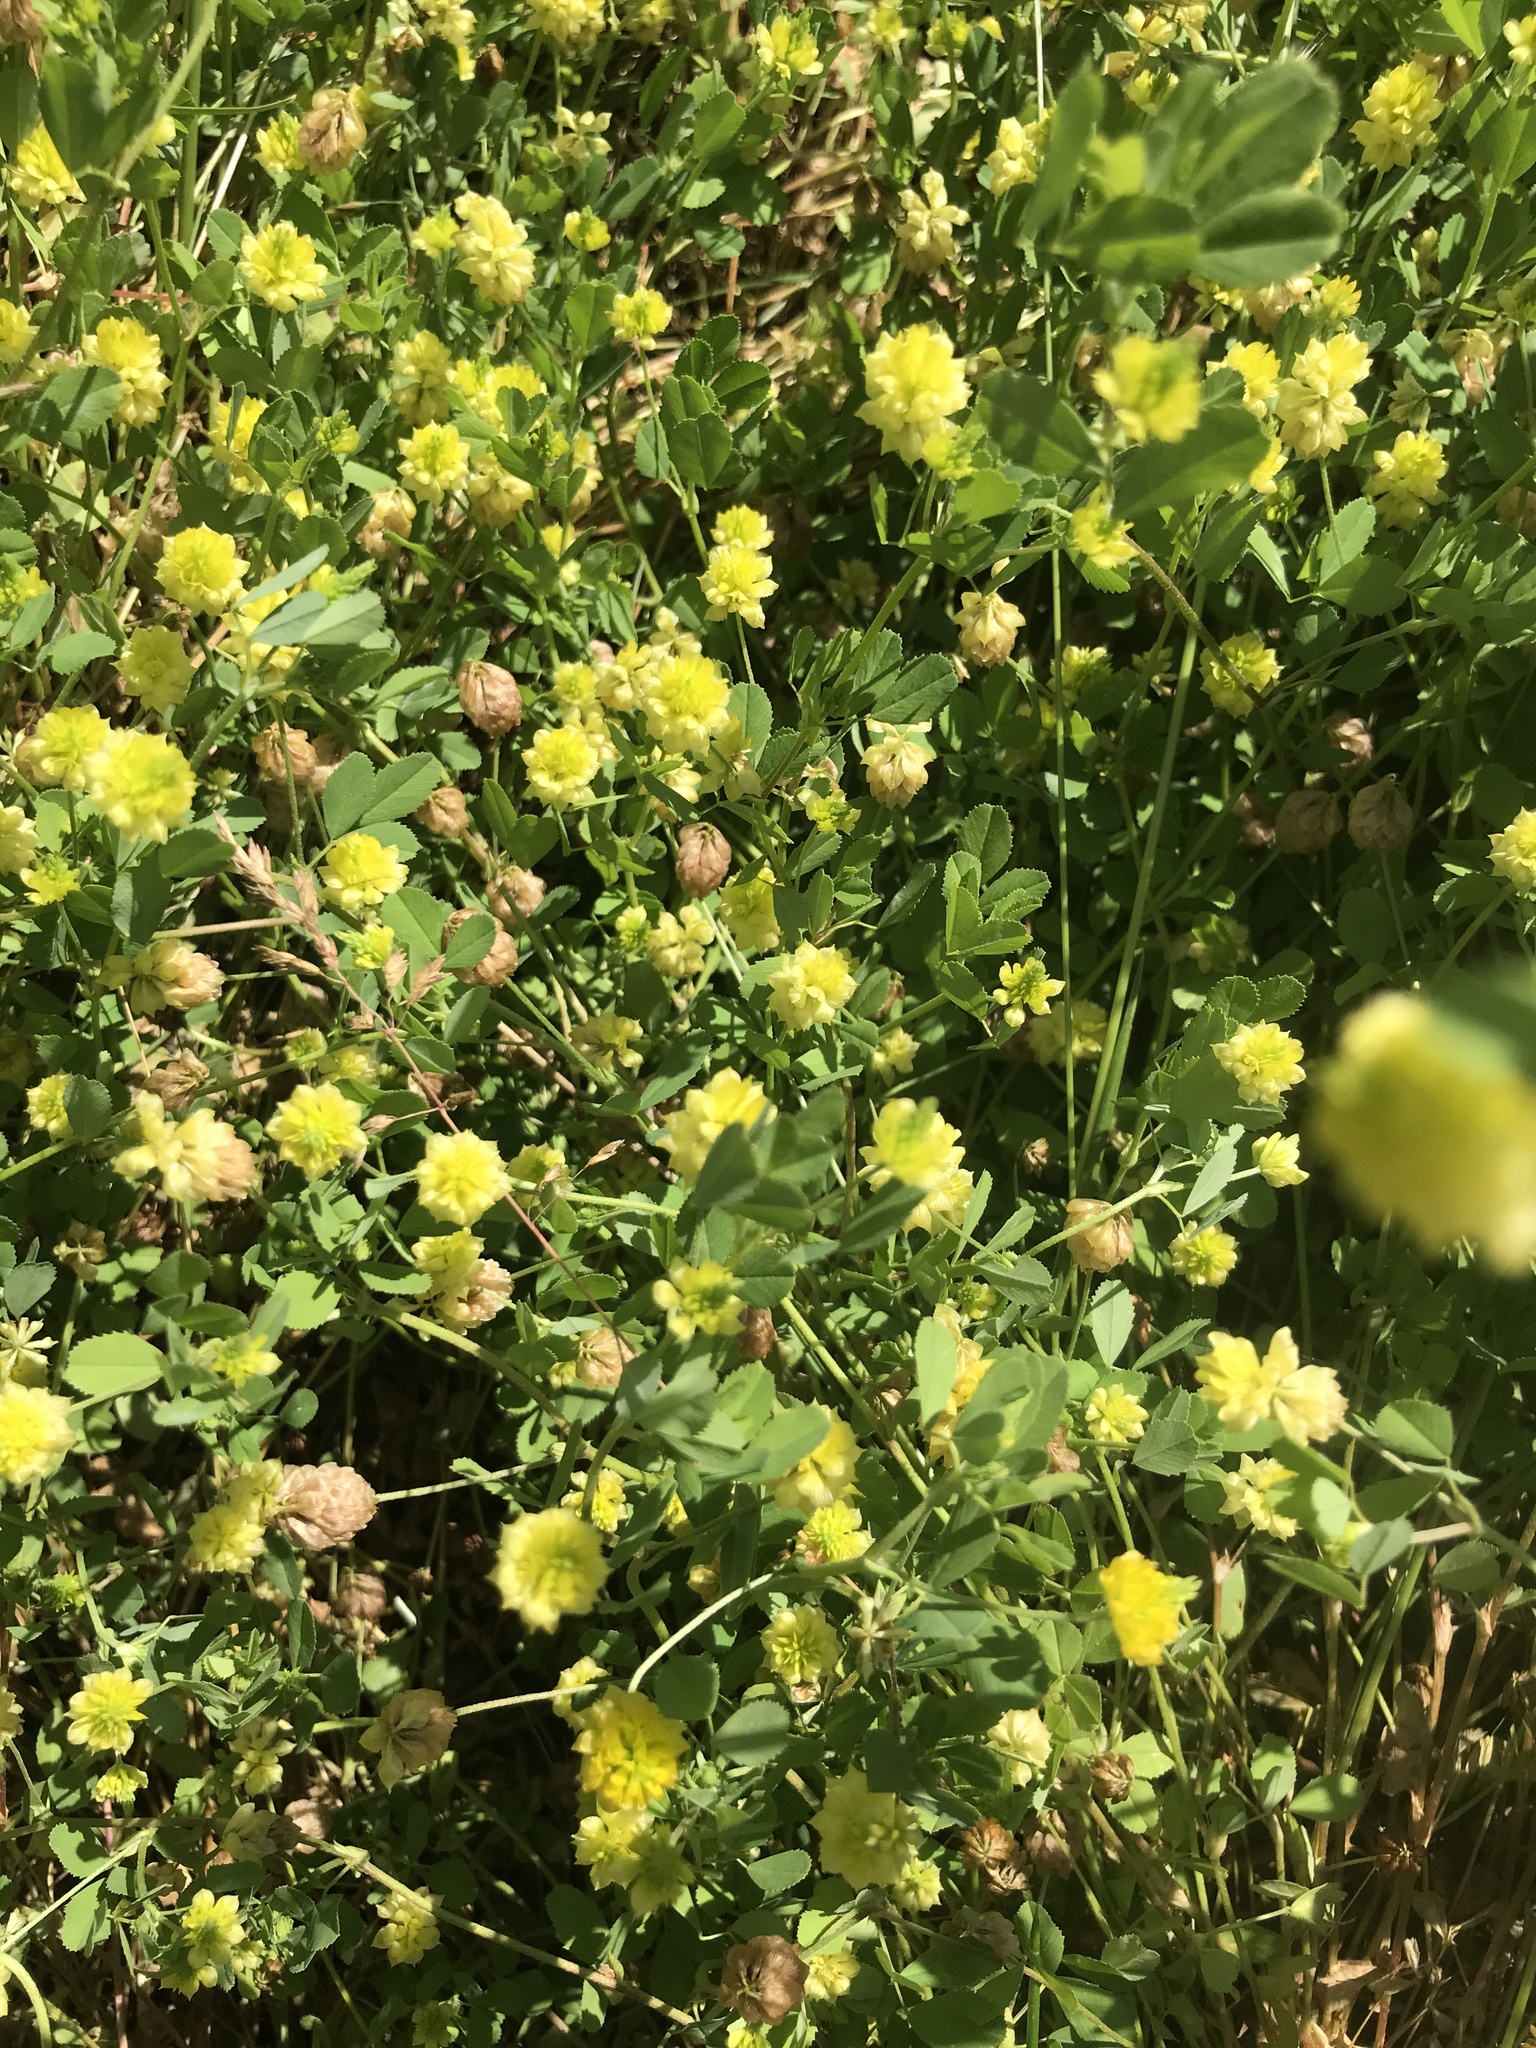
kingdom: Plantae
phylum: Tracheophyta
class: Magnoliopsida
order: Fabales
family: Fabaceae
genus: Trifolium
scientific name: Trifolium campestre
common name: Field clover
